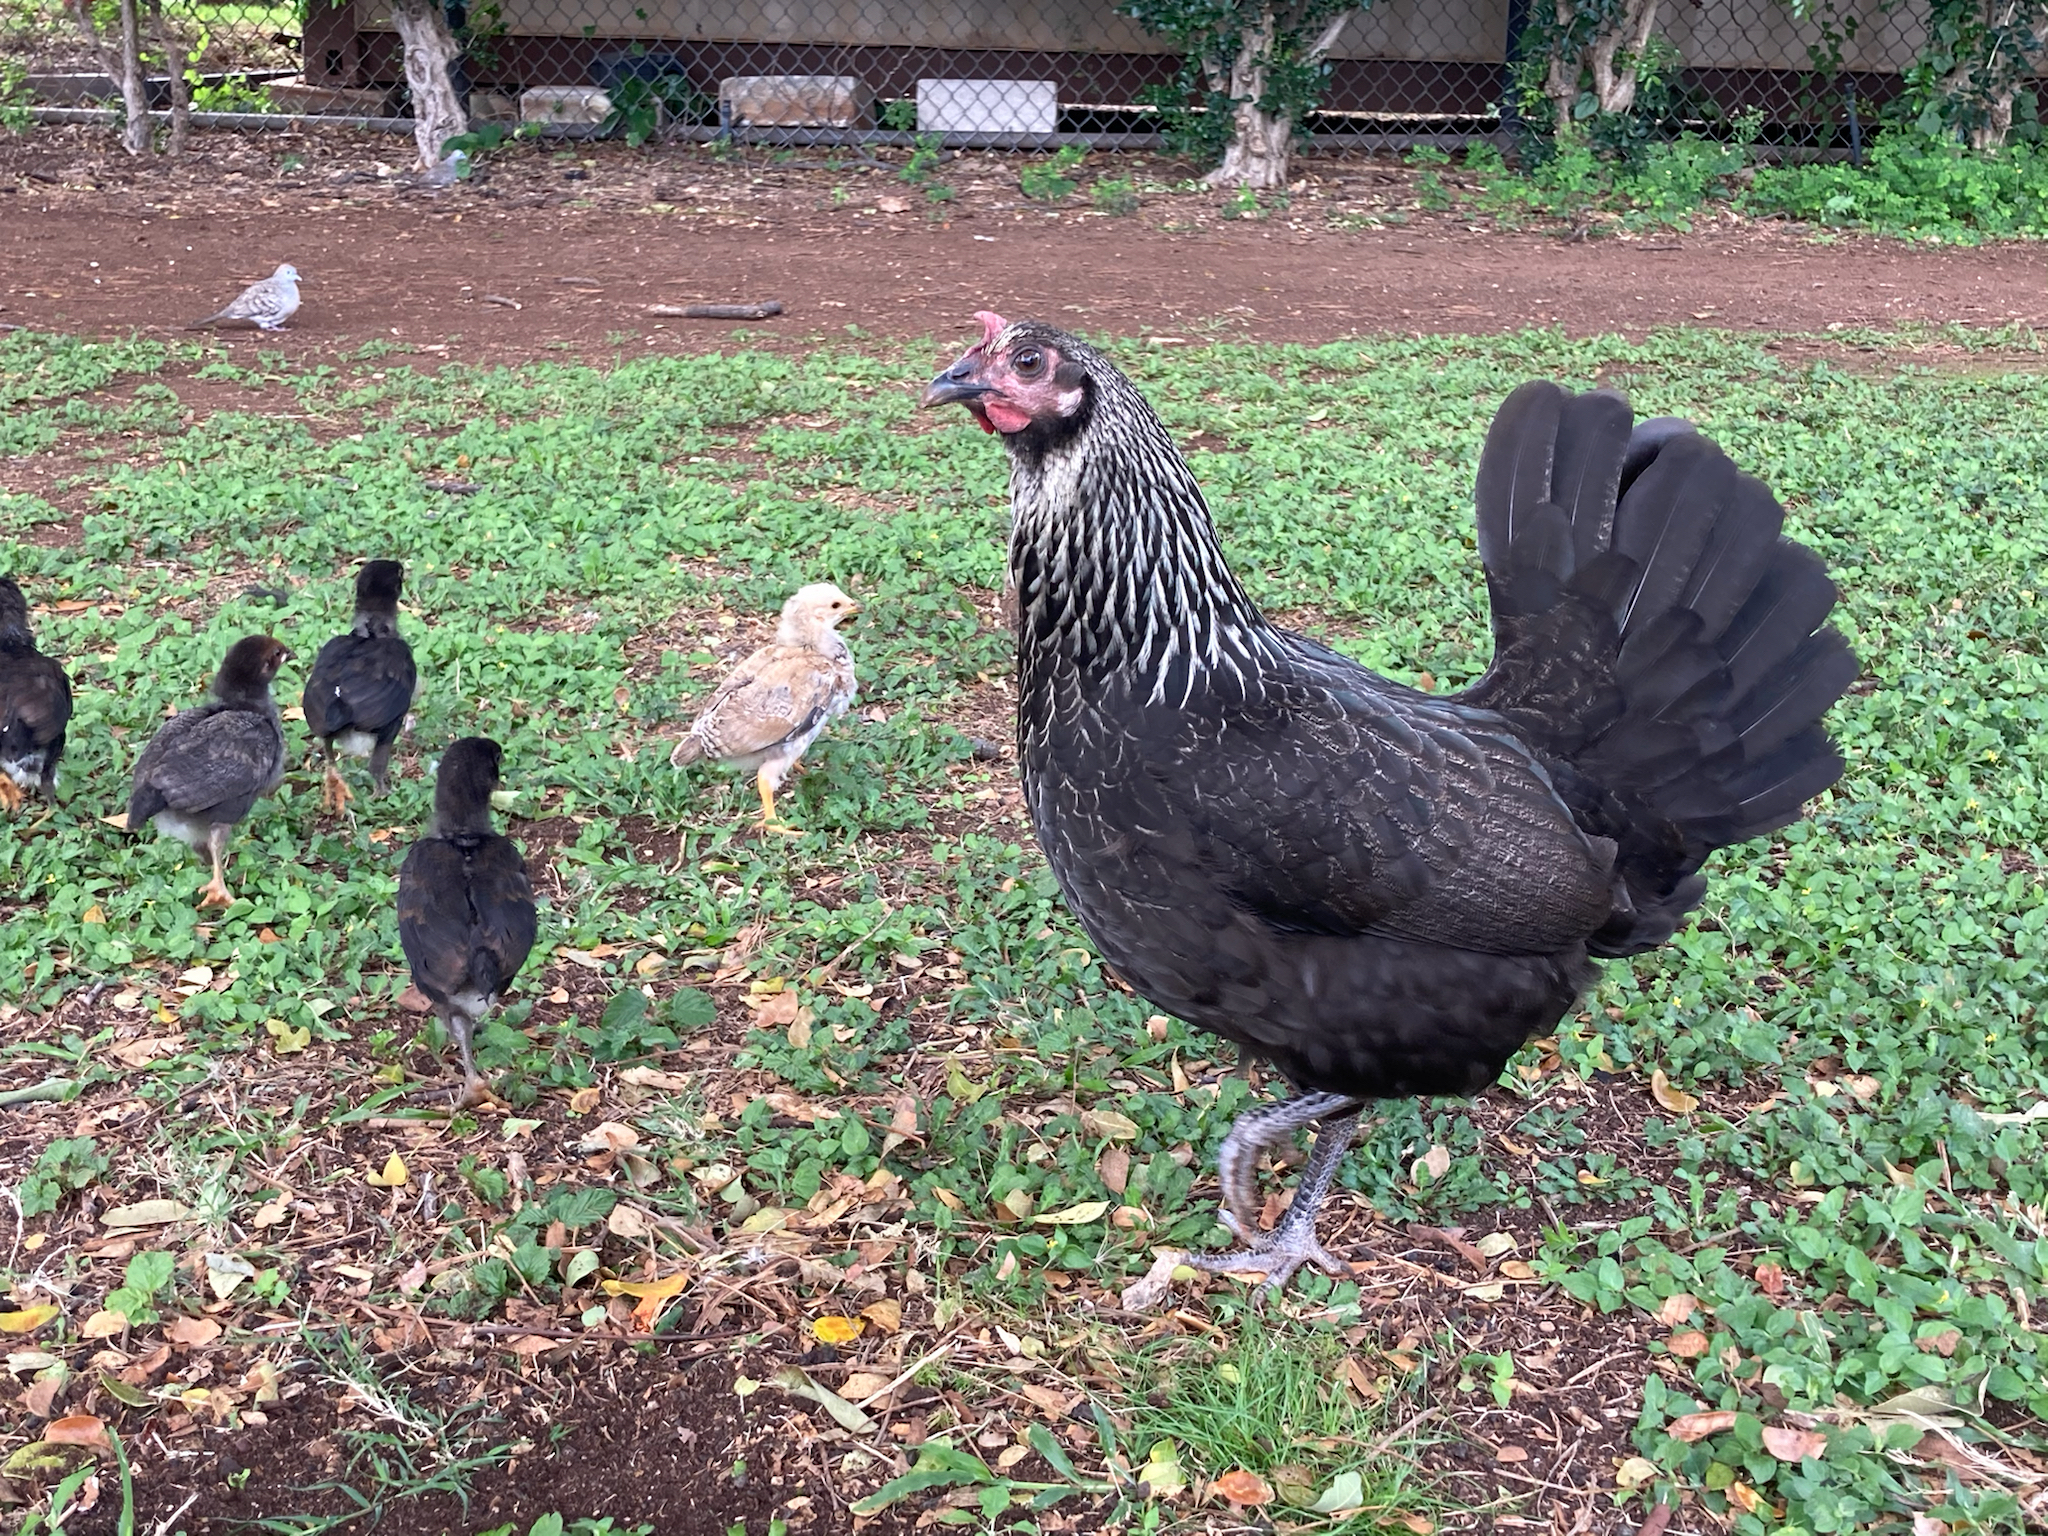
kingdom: Animalia
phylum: Chordata
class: Aves
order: Galliformes
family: Phasianidae
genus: Gallus
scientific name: Gallus gallus
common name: Red junglefowl
